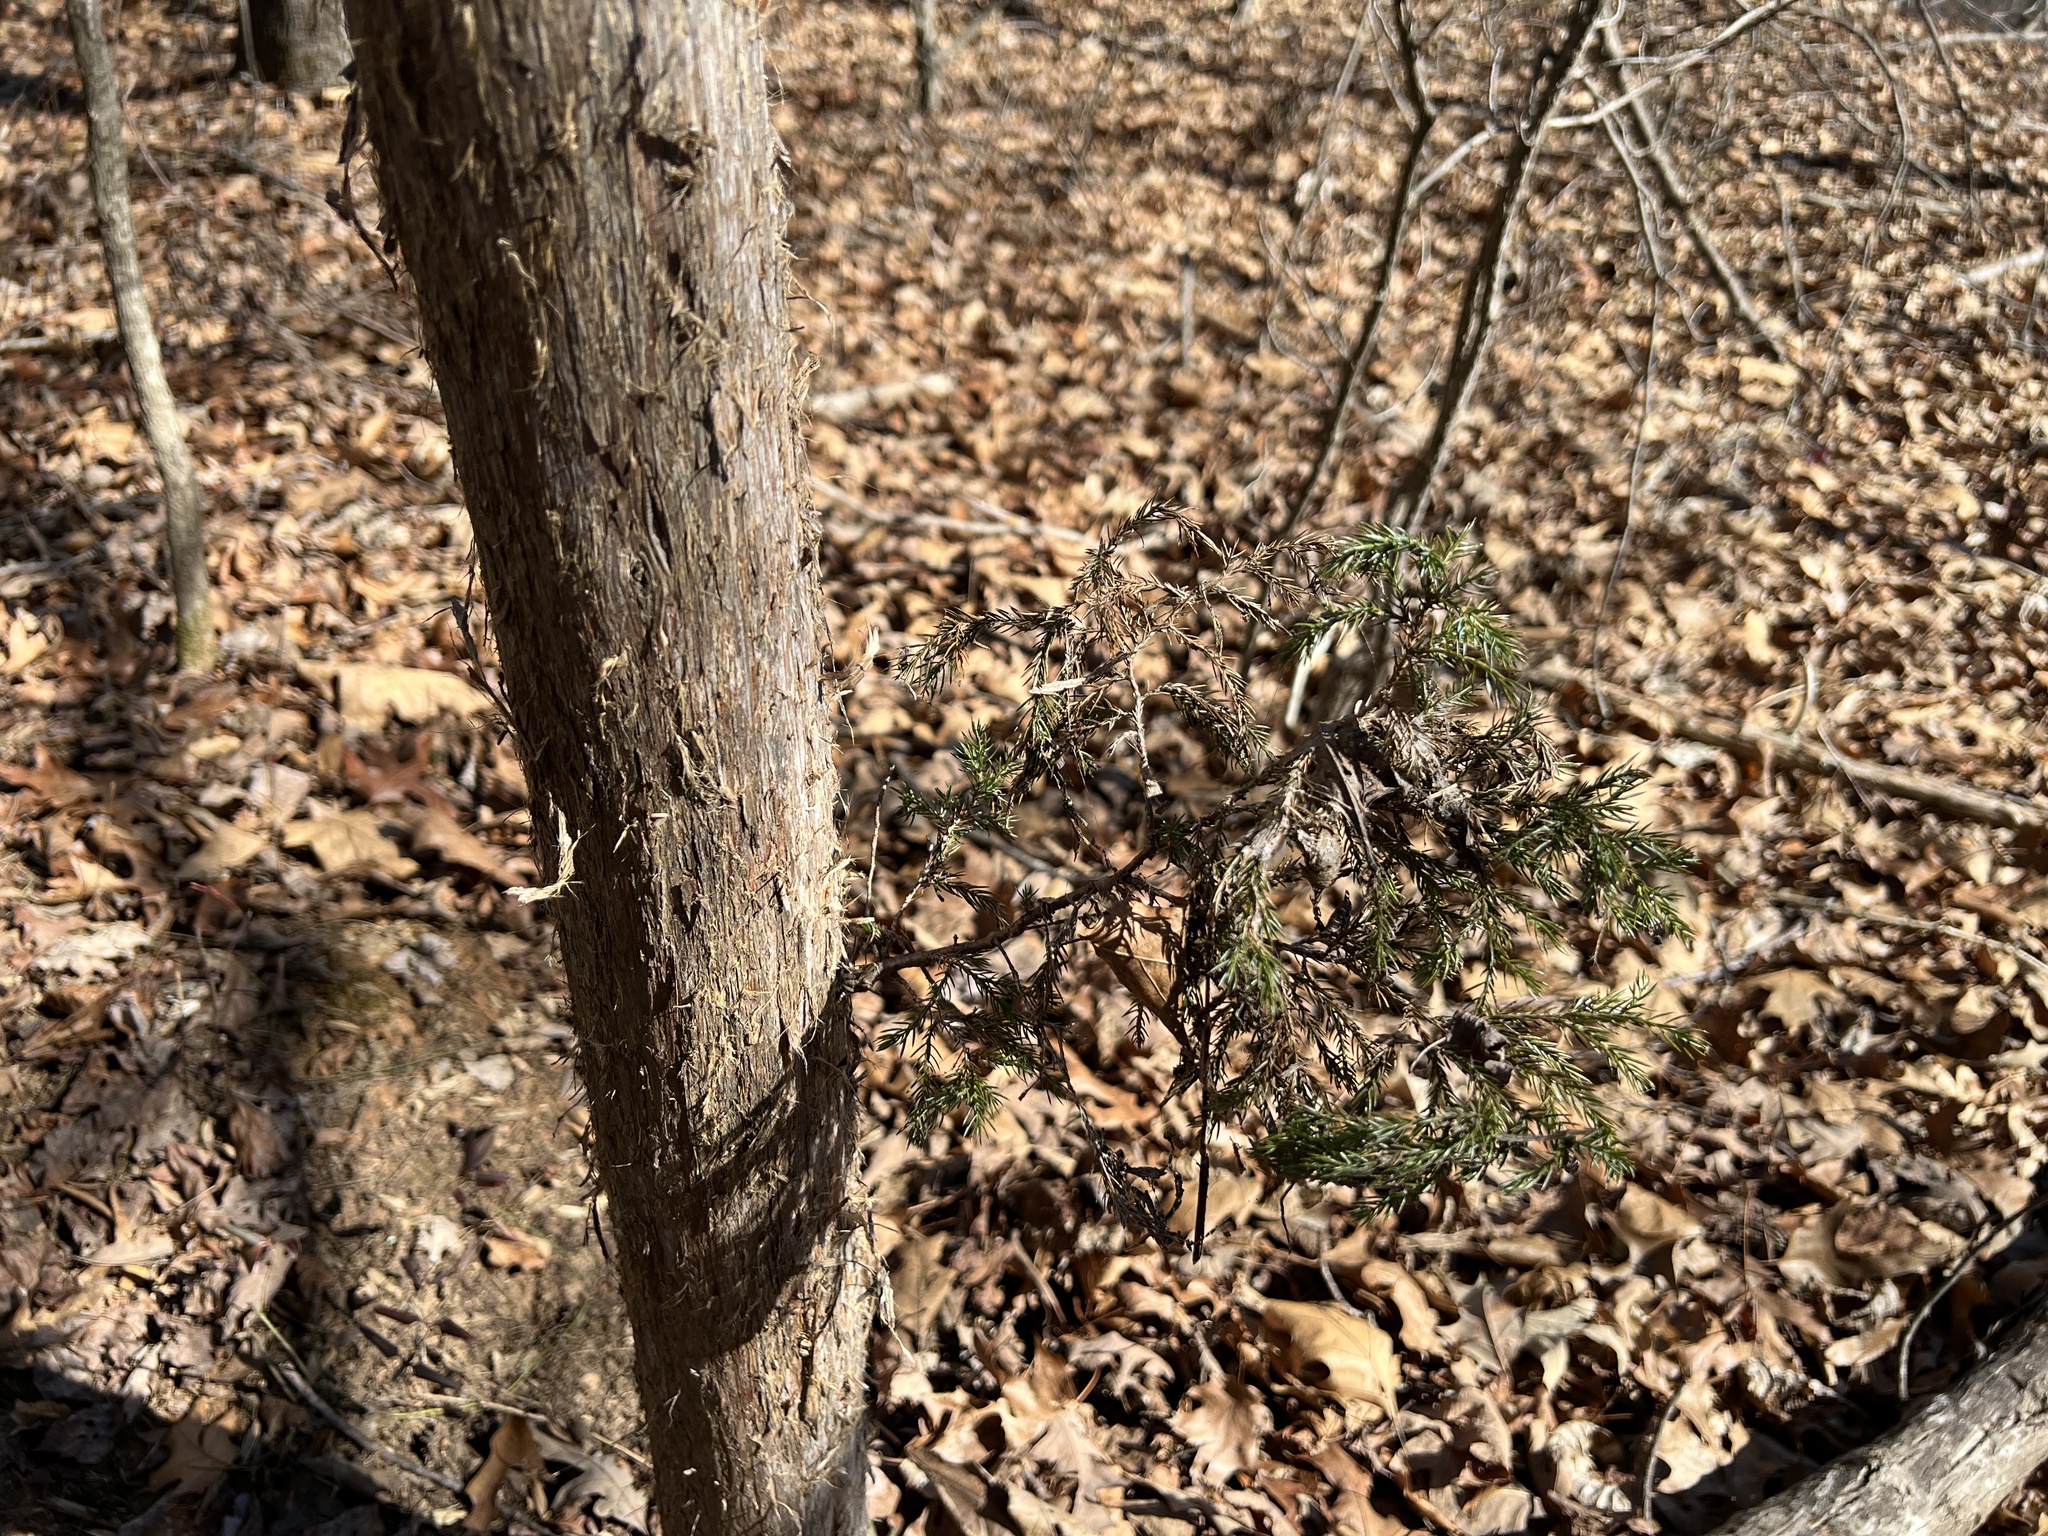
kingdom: Plantae
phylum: Tracheophyta
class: Pinopsida
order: Pinales
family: Cupressaceae
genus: Juniperus
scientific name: Juniperus virginiana
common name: Red juniper
